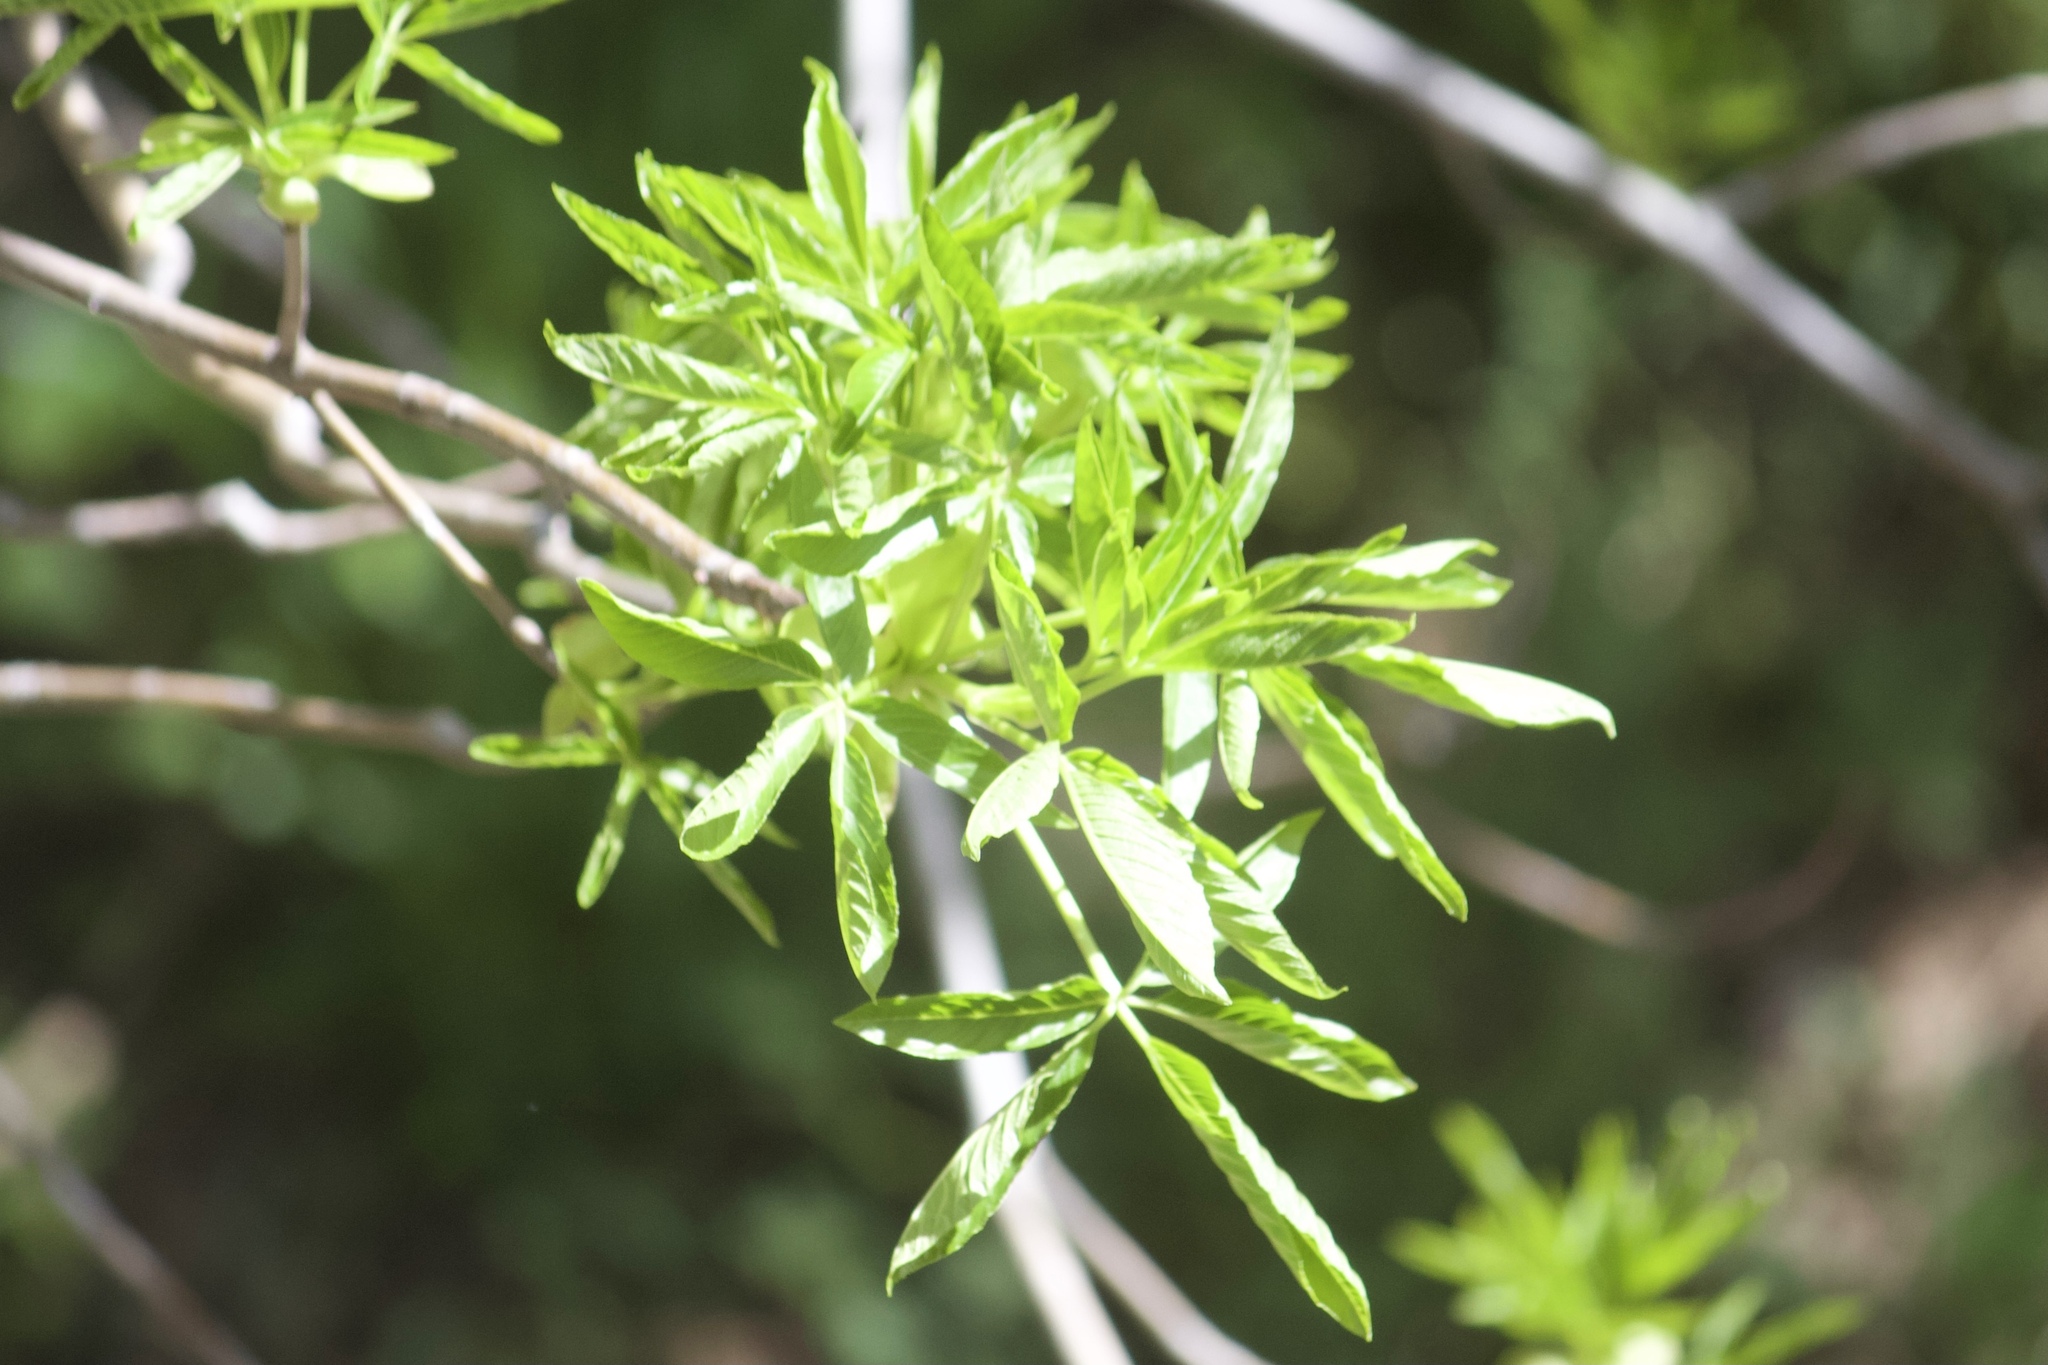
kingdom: Plantae
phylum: Tracheophyta
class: Magnoliopsida
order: Sapindales
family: Sapindaceae
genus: Aesculus
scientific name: Aesculus californica
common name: California buckeye
